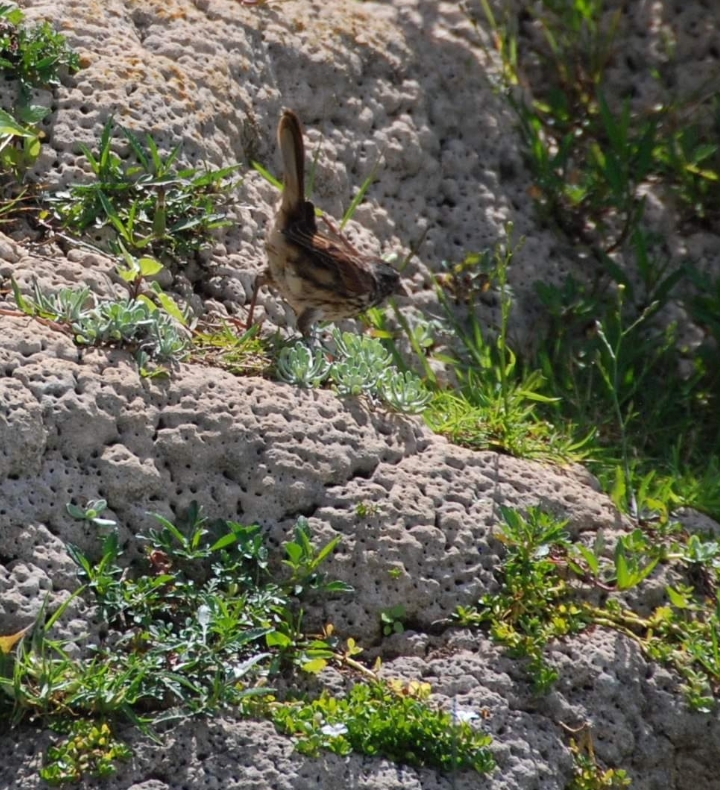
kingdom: Animalia
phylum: Chordata
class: Aves
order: Passeriformes
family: Passerellidae
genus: Melospiza
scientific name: Melospiza melodia
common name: Song sparrow
